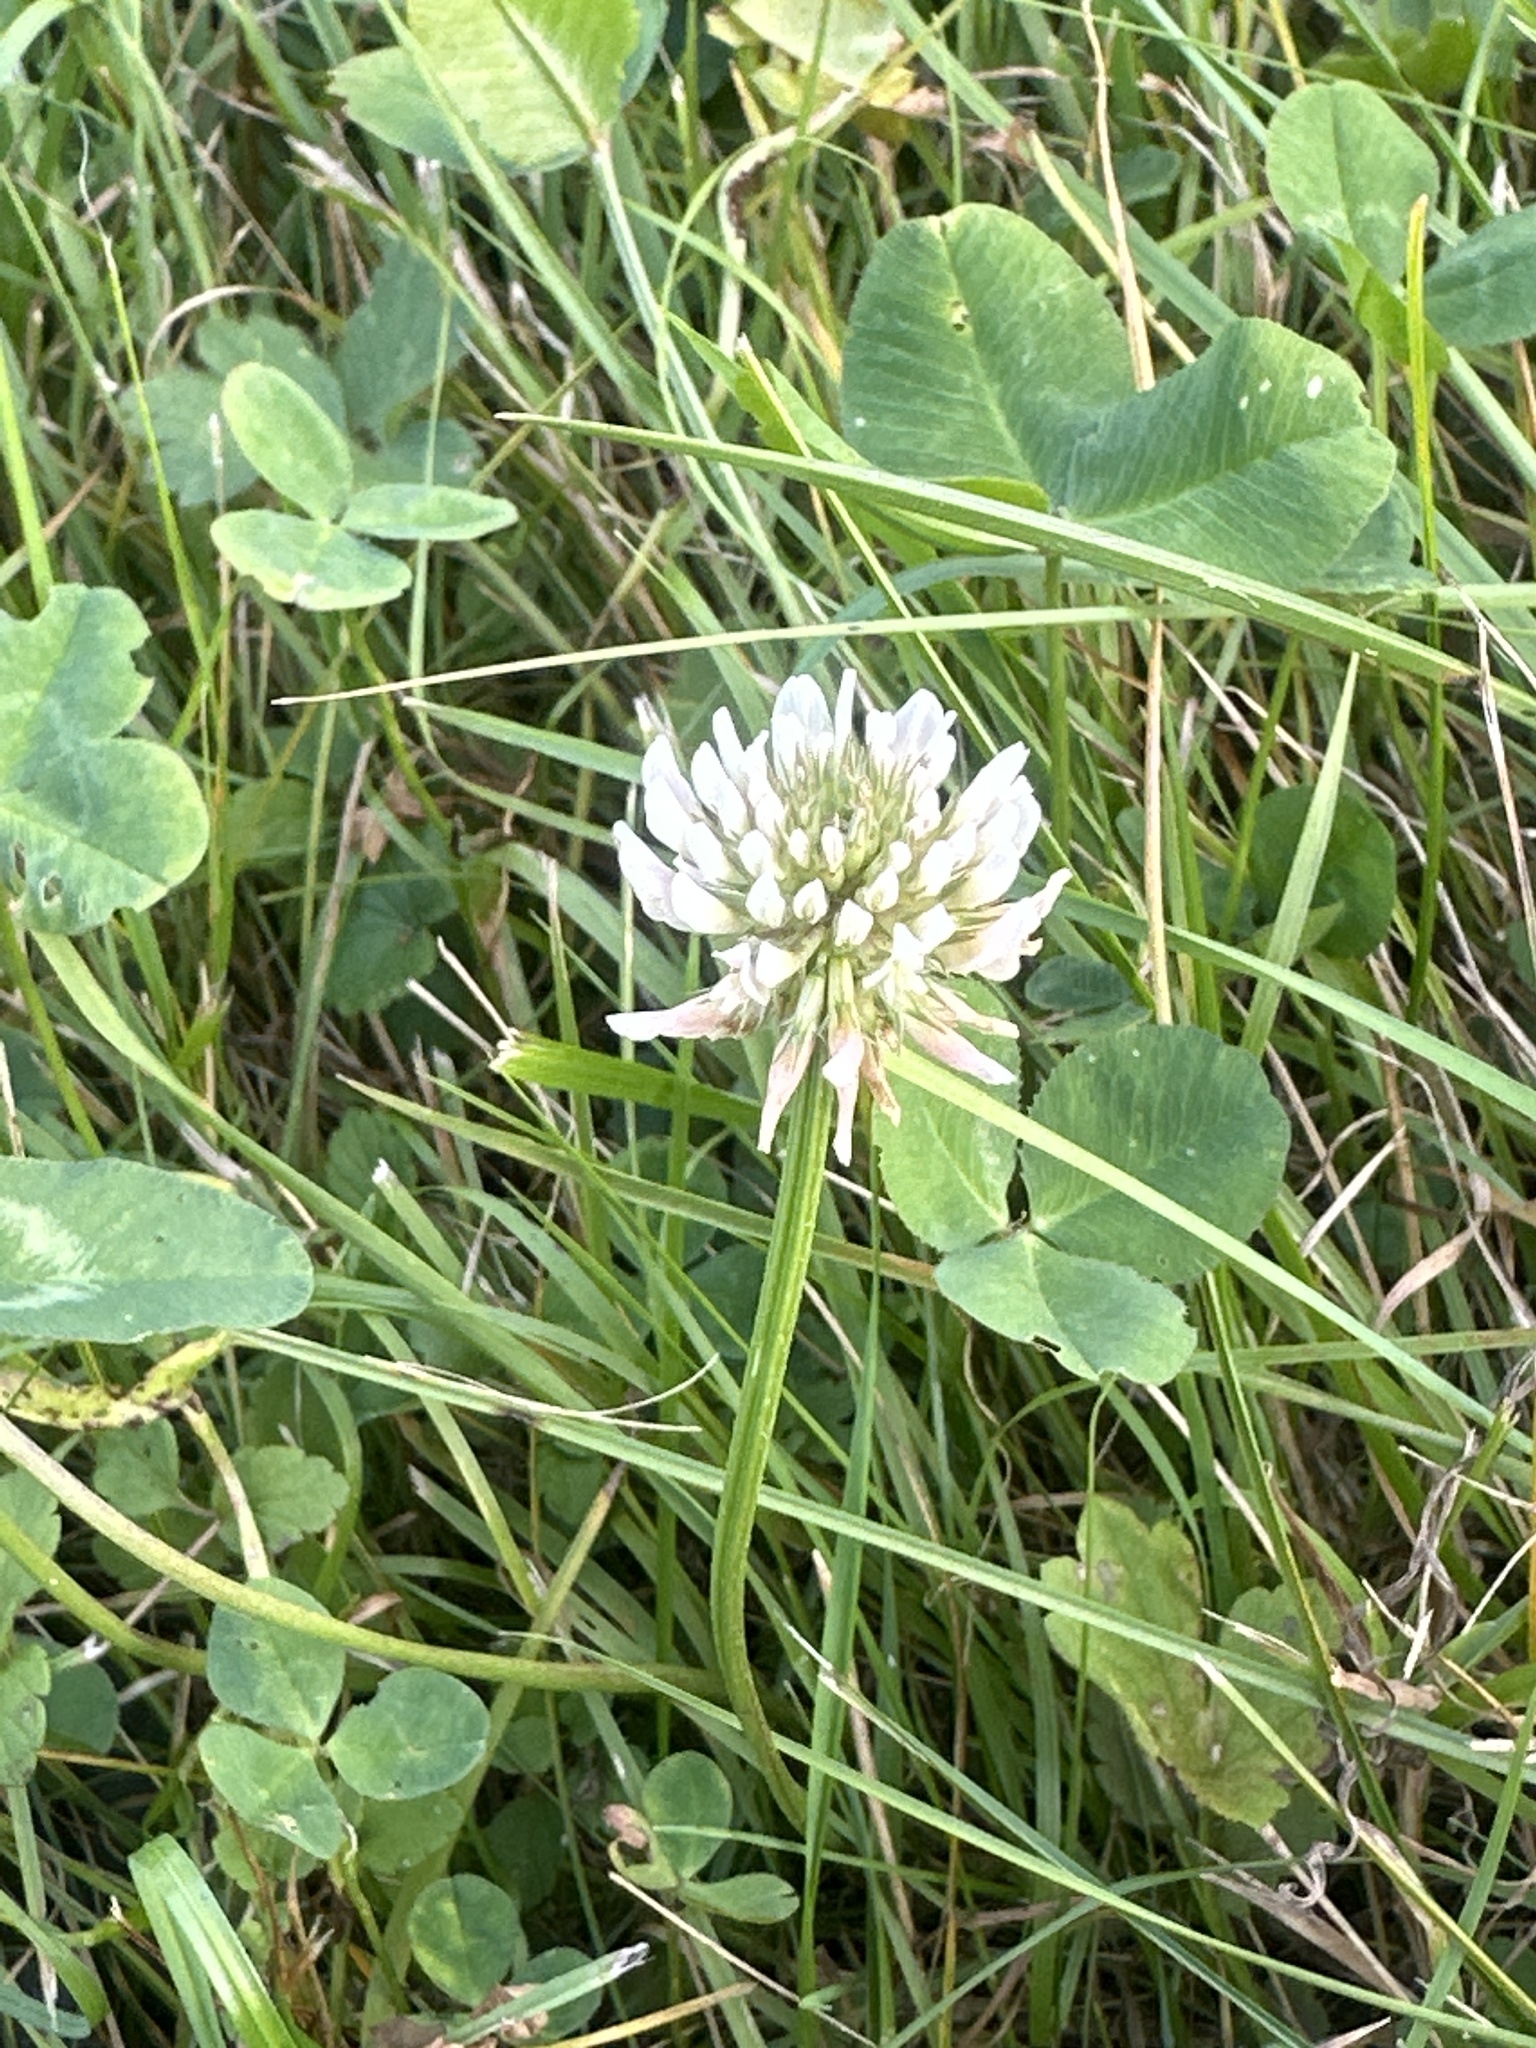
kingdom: Plantae
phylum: Tracheophyta
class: Magnoliopsida
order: Fabales
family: Fabaceae
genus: Trifolium
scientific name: Trifolium repens
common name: White clover
